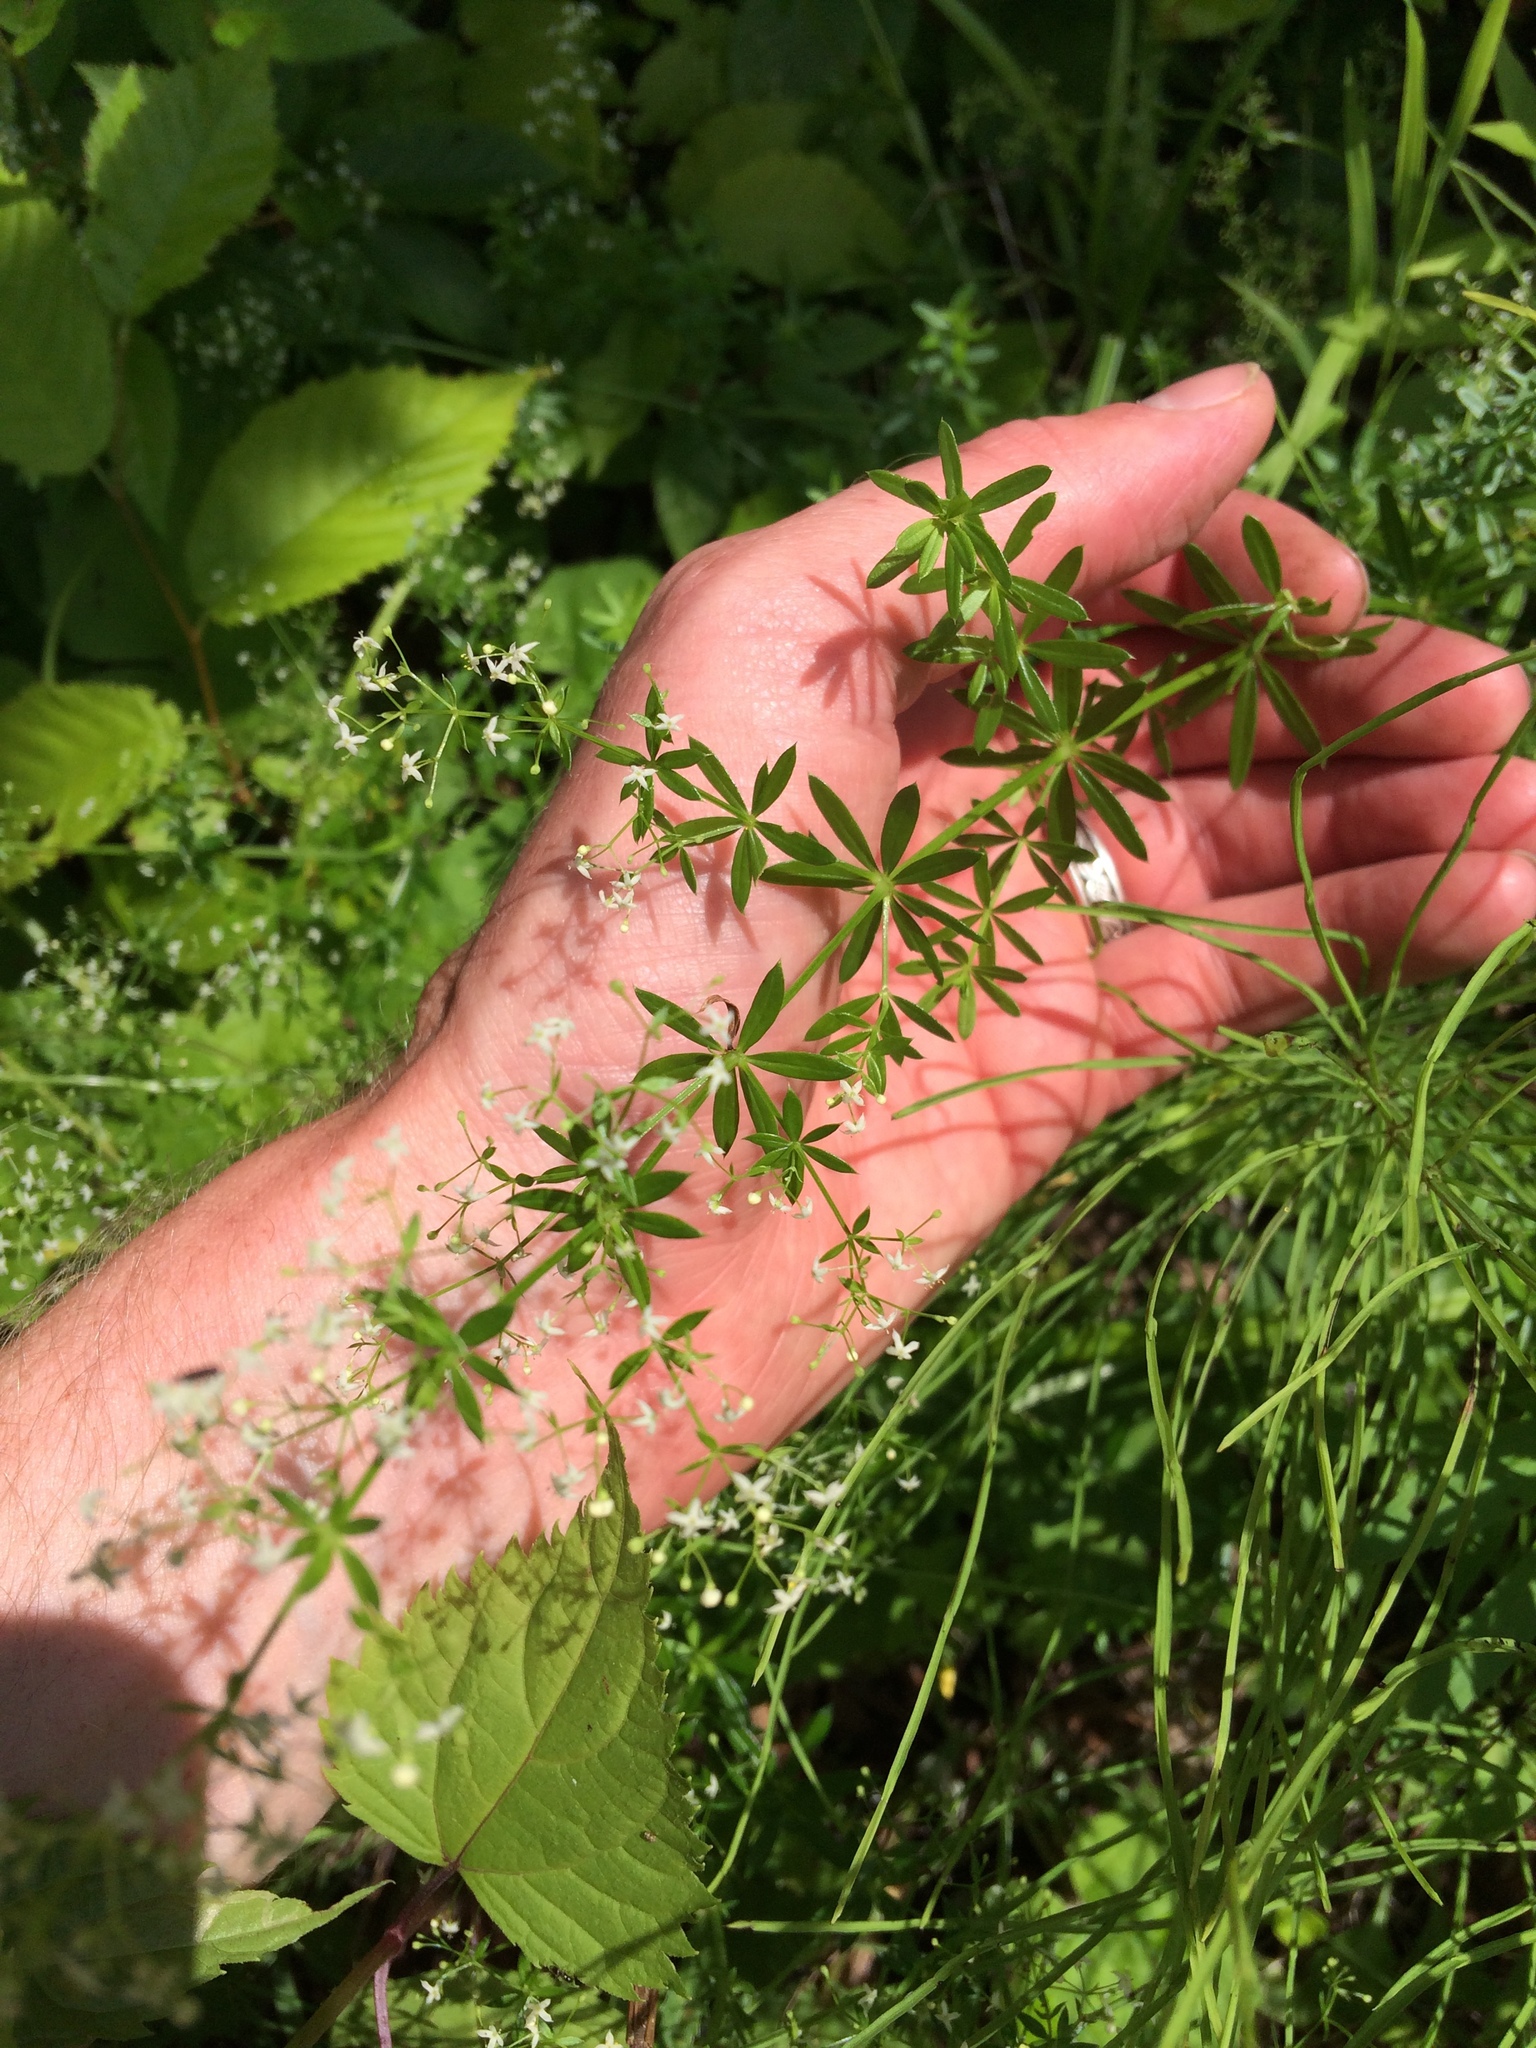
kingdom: Plantae
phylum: Tracheophyta
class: Magnoliopsida
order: Gentianales
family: Rubiaceae
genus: Galium
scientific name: Galium mollugo
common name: Hedge bedstraw
